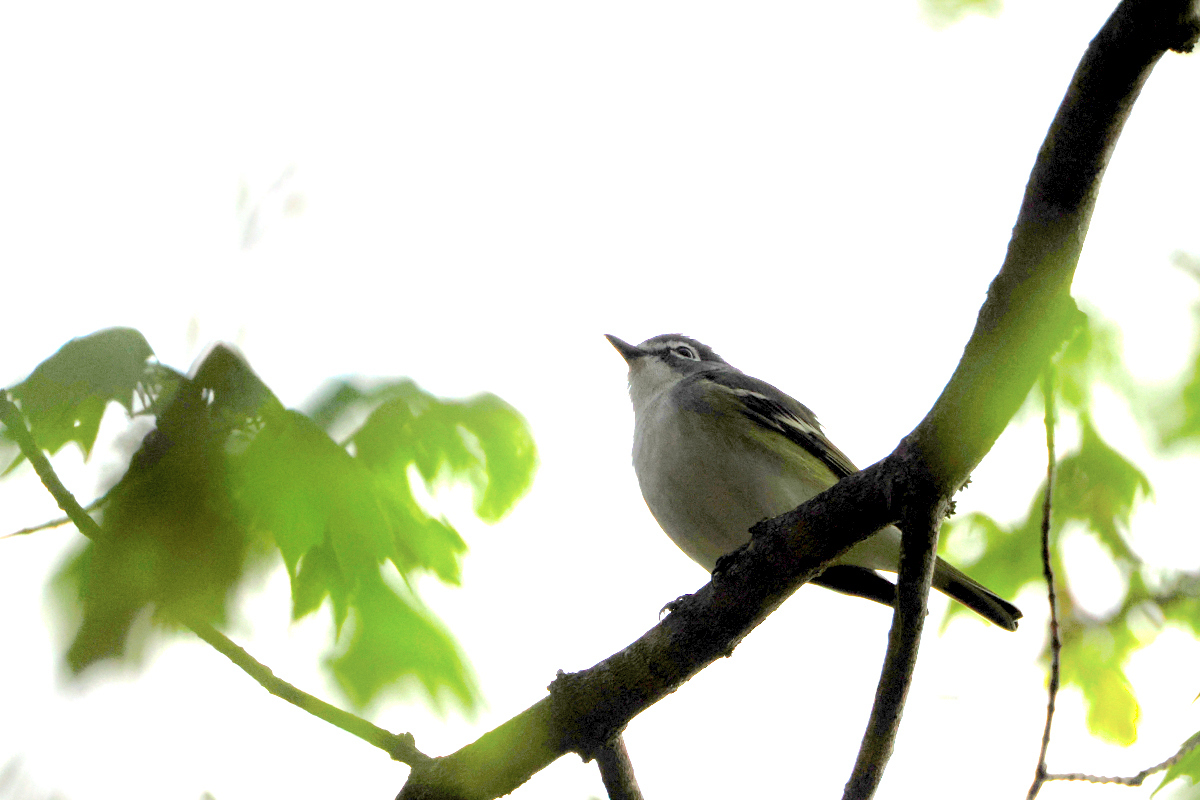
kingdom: Animalia
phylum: Chordata
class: Aves
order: Passeriformes
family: Vireonidae
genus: Vireo
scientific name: Vireo solitarius
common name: Blue-headed vireo
